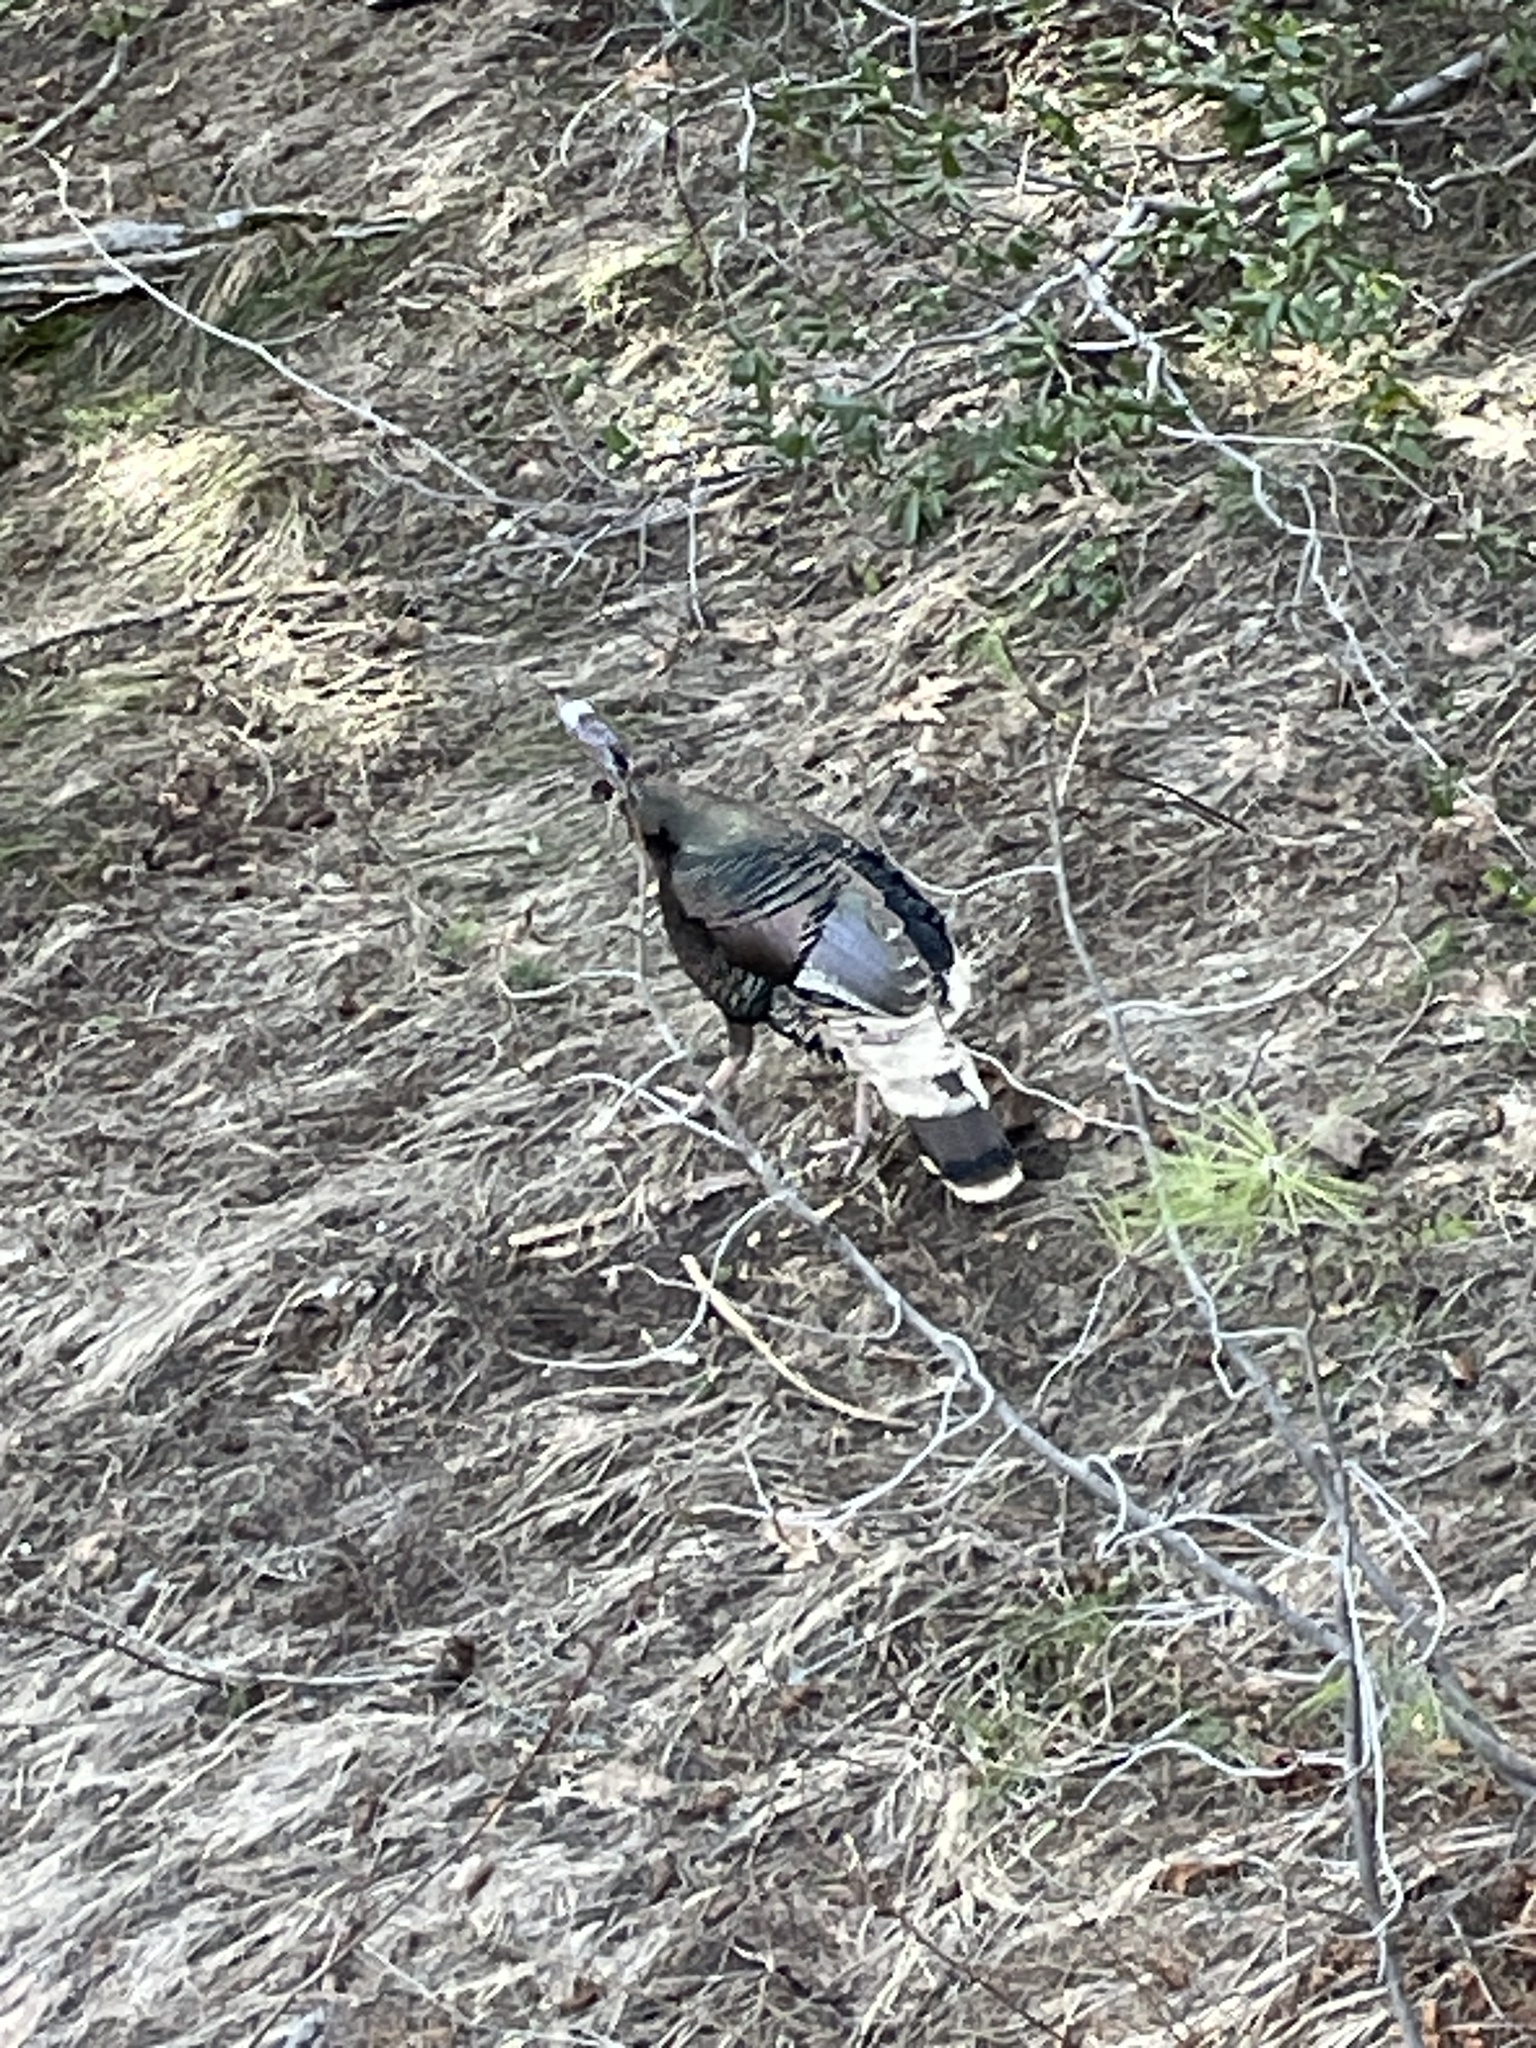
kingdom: Animalia
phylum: Chordata
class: Aves
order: Galliformes
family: Phasianidae
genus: Meleagris
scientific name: Meleagris gallopavo
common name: Wild turkey
